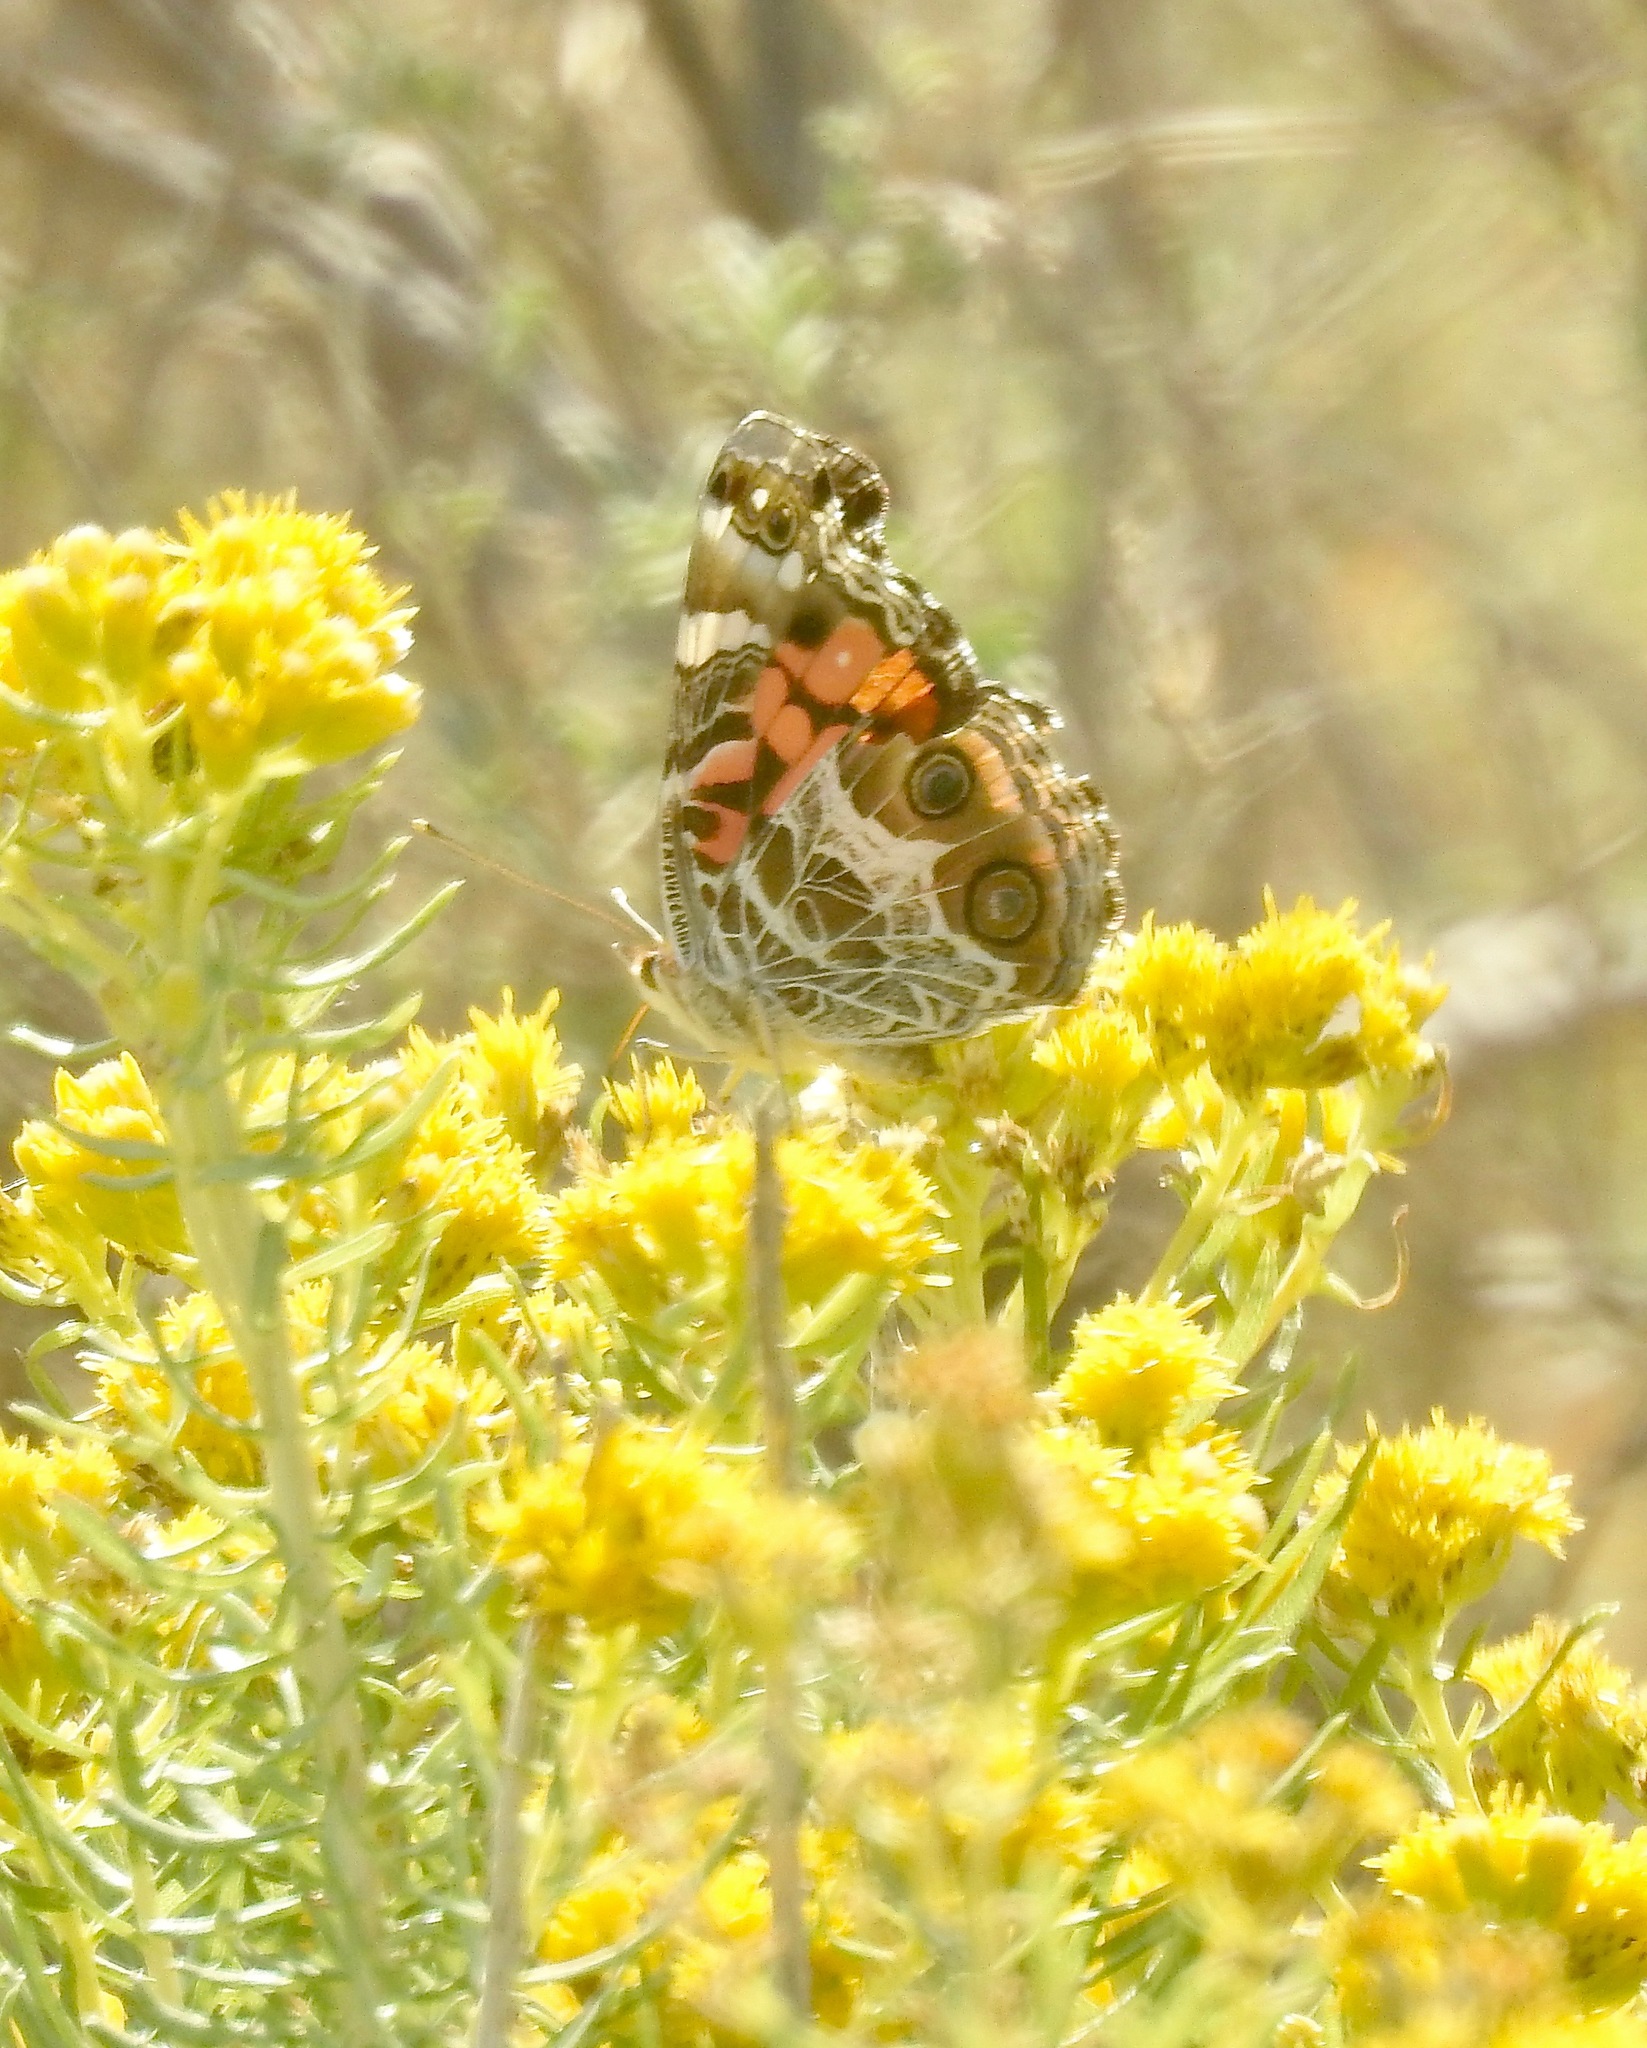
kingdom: Animalia
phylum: Arthropoda
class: Insecta
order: Lepidoptera
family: Nymphalidae
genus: Vanessa
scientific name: Vanessa virginiensis
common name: American lady
